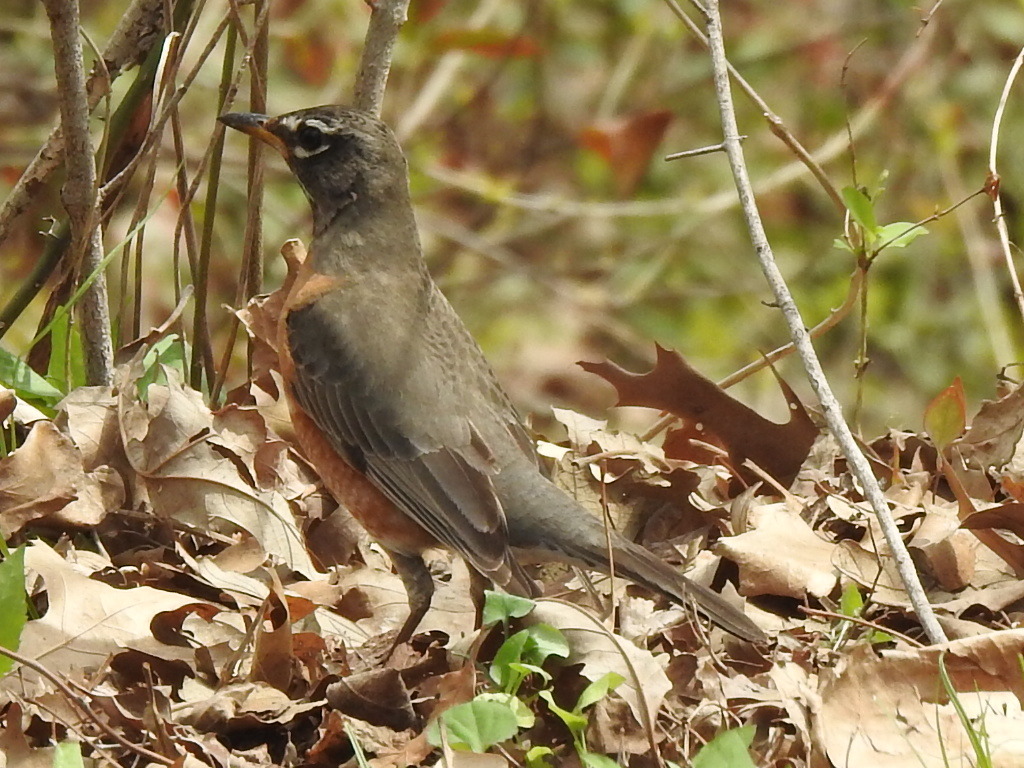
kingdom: Animalia
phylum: Chordata
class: Aves
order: Passeriformes
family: Turdidae
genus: Turdus
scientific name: Turdus migratorius
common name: American robin
